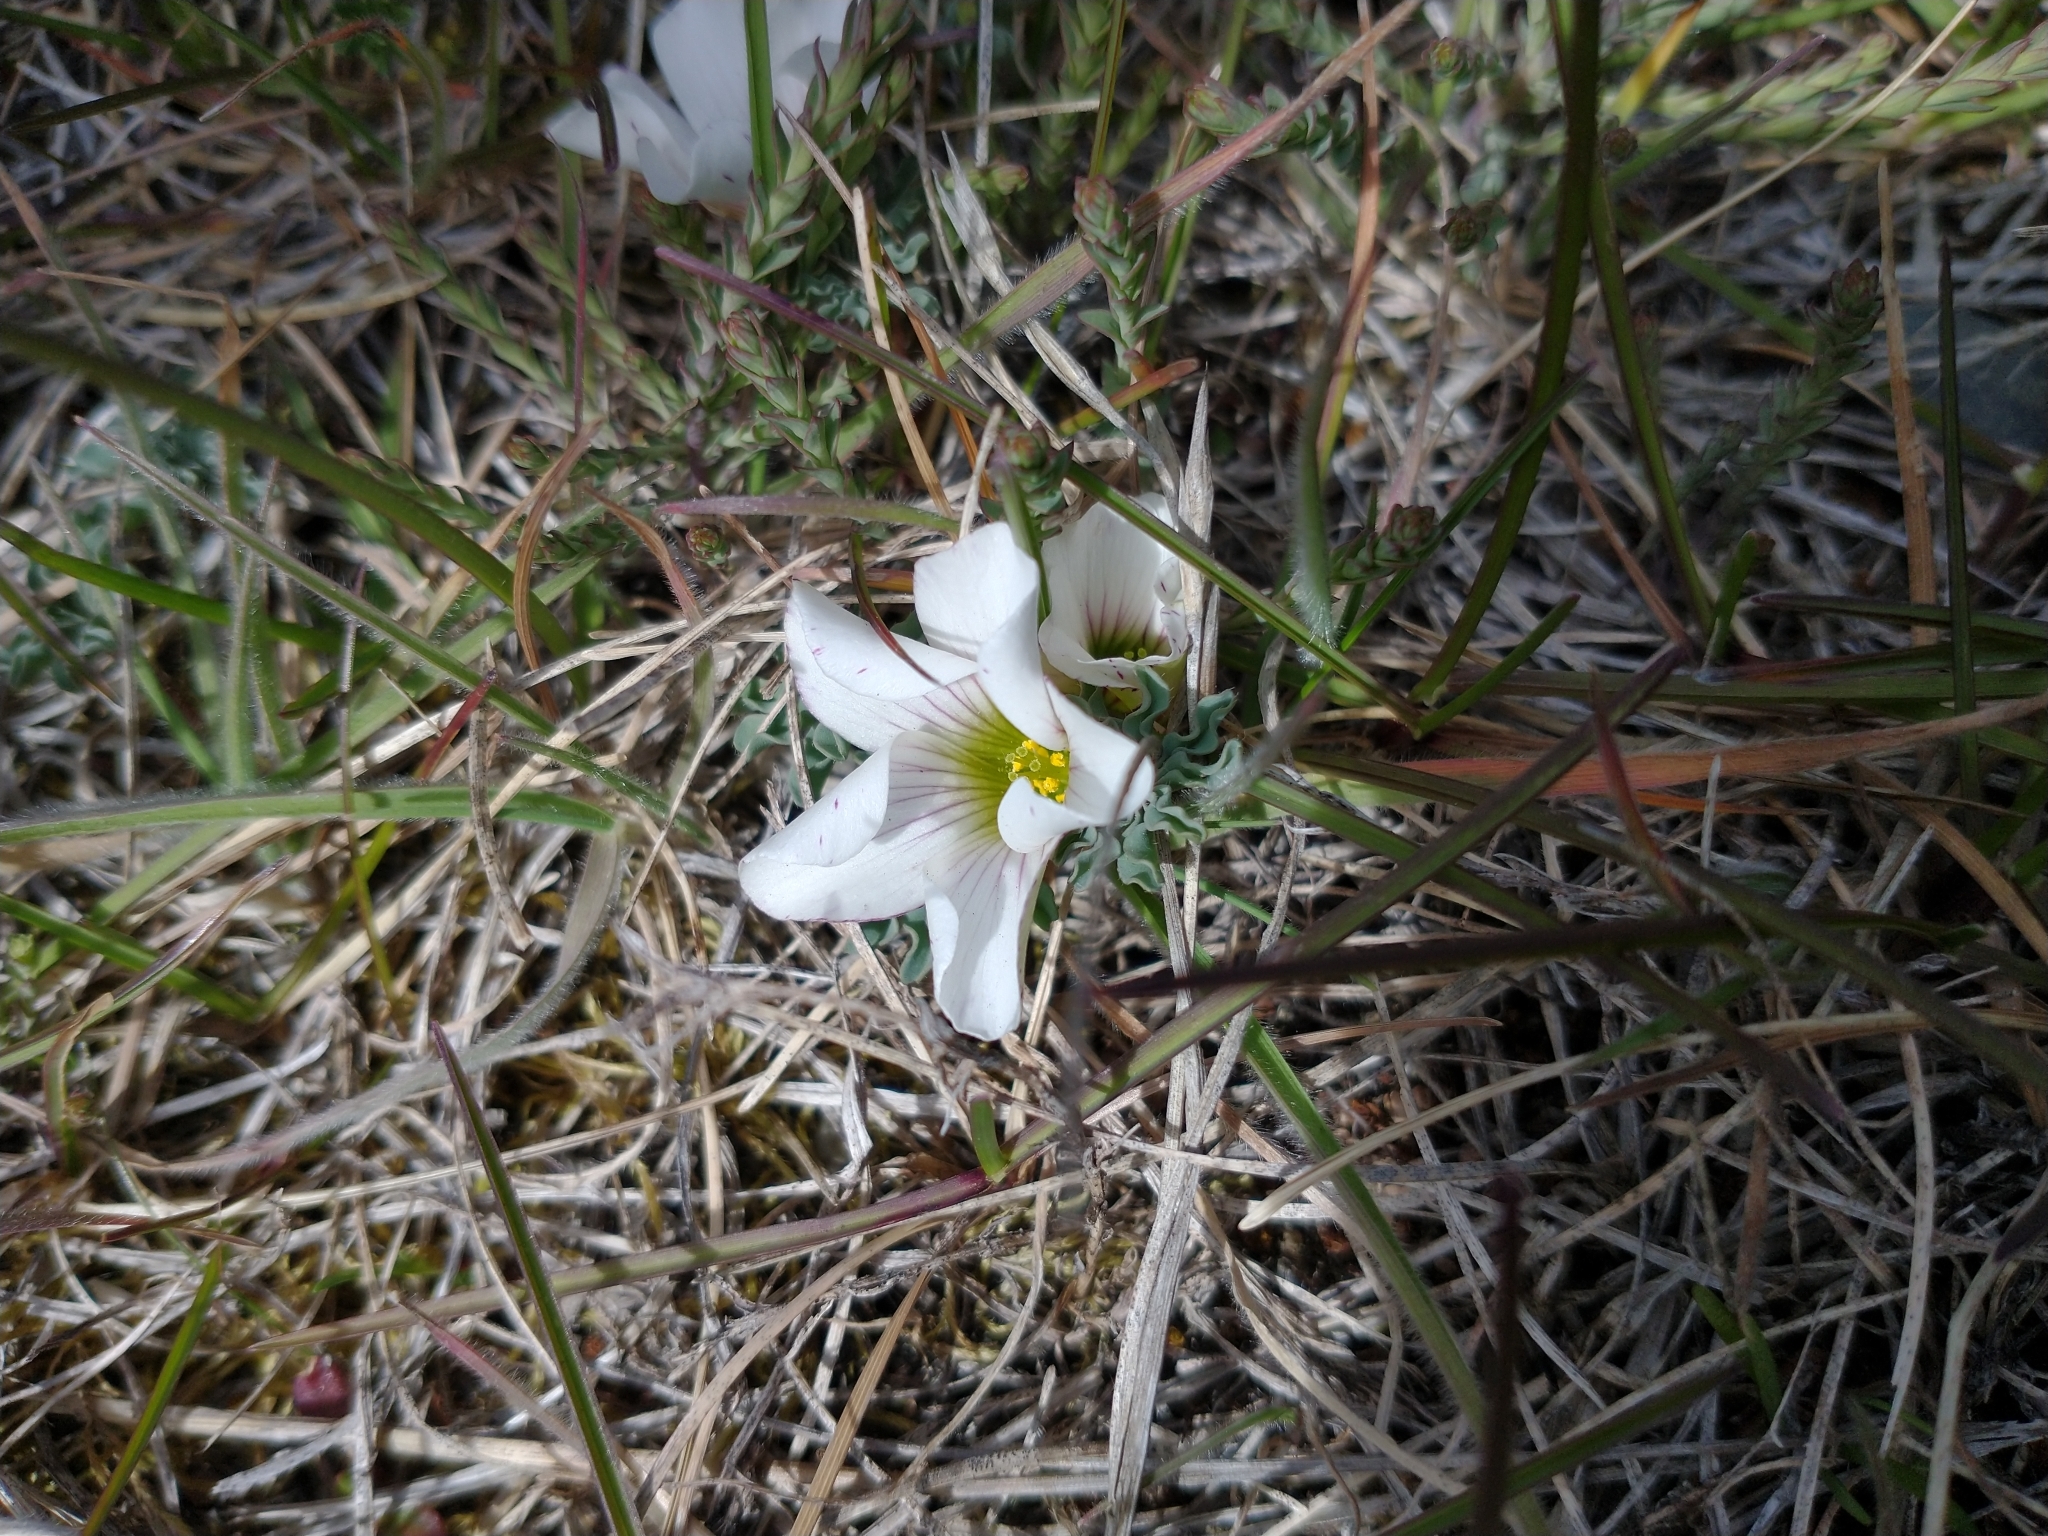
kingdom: Plantae
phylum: Tracheophyta
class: Magnoliopsida
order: Oxalidales
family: Oxalidaceae
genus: Oxalis
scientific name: Oxalis laciniata
